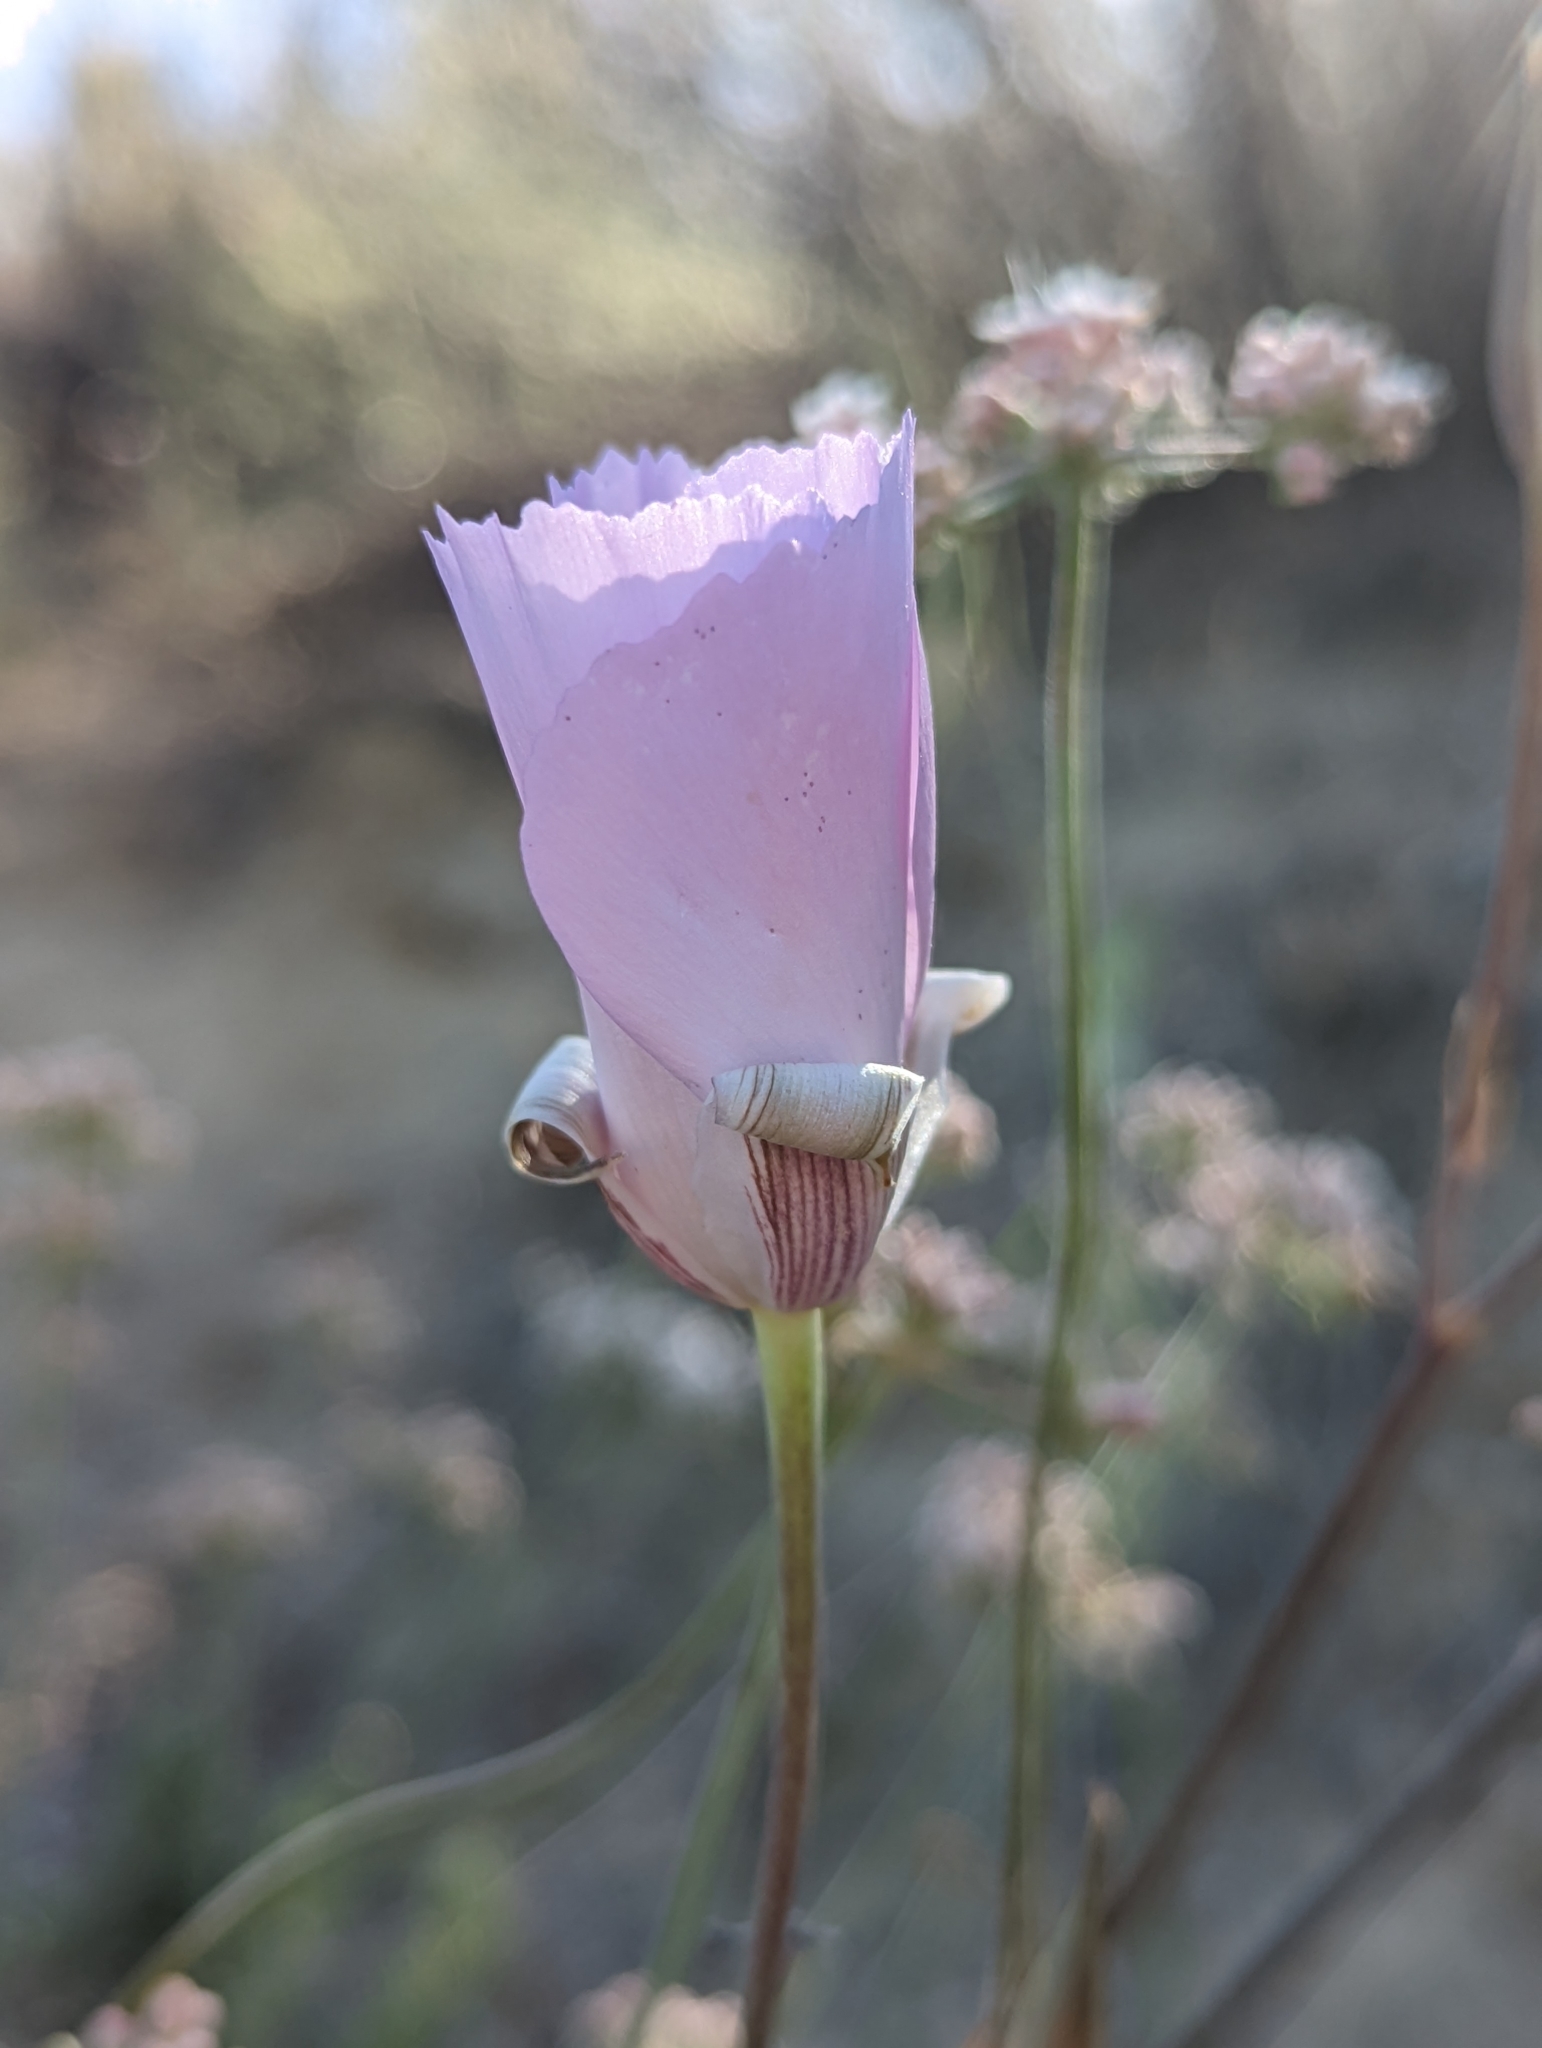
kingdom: Plantae
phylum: Tracheophyta
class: Liliopsida
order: Liliales
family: Liliaceae
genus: Calochortus
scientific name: Calochortus splendens
